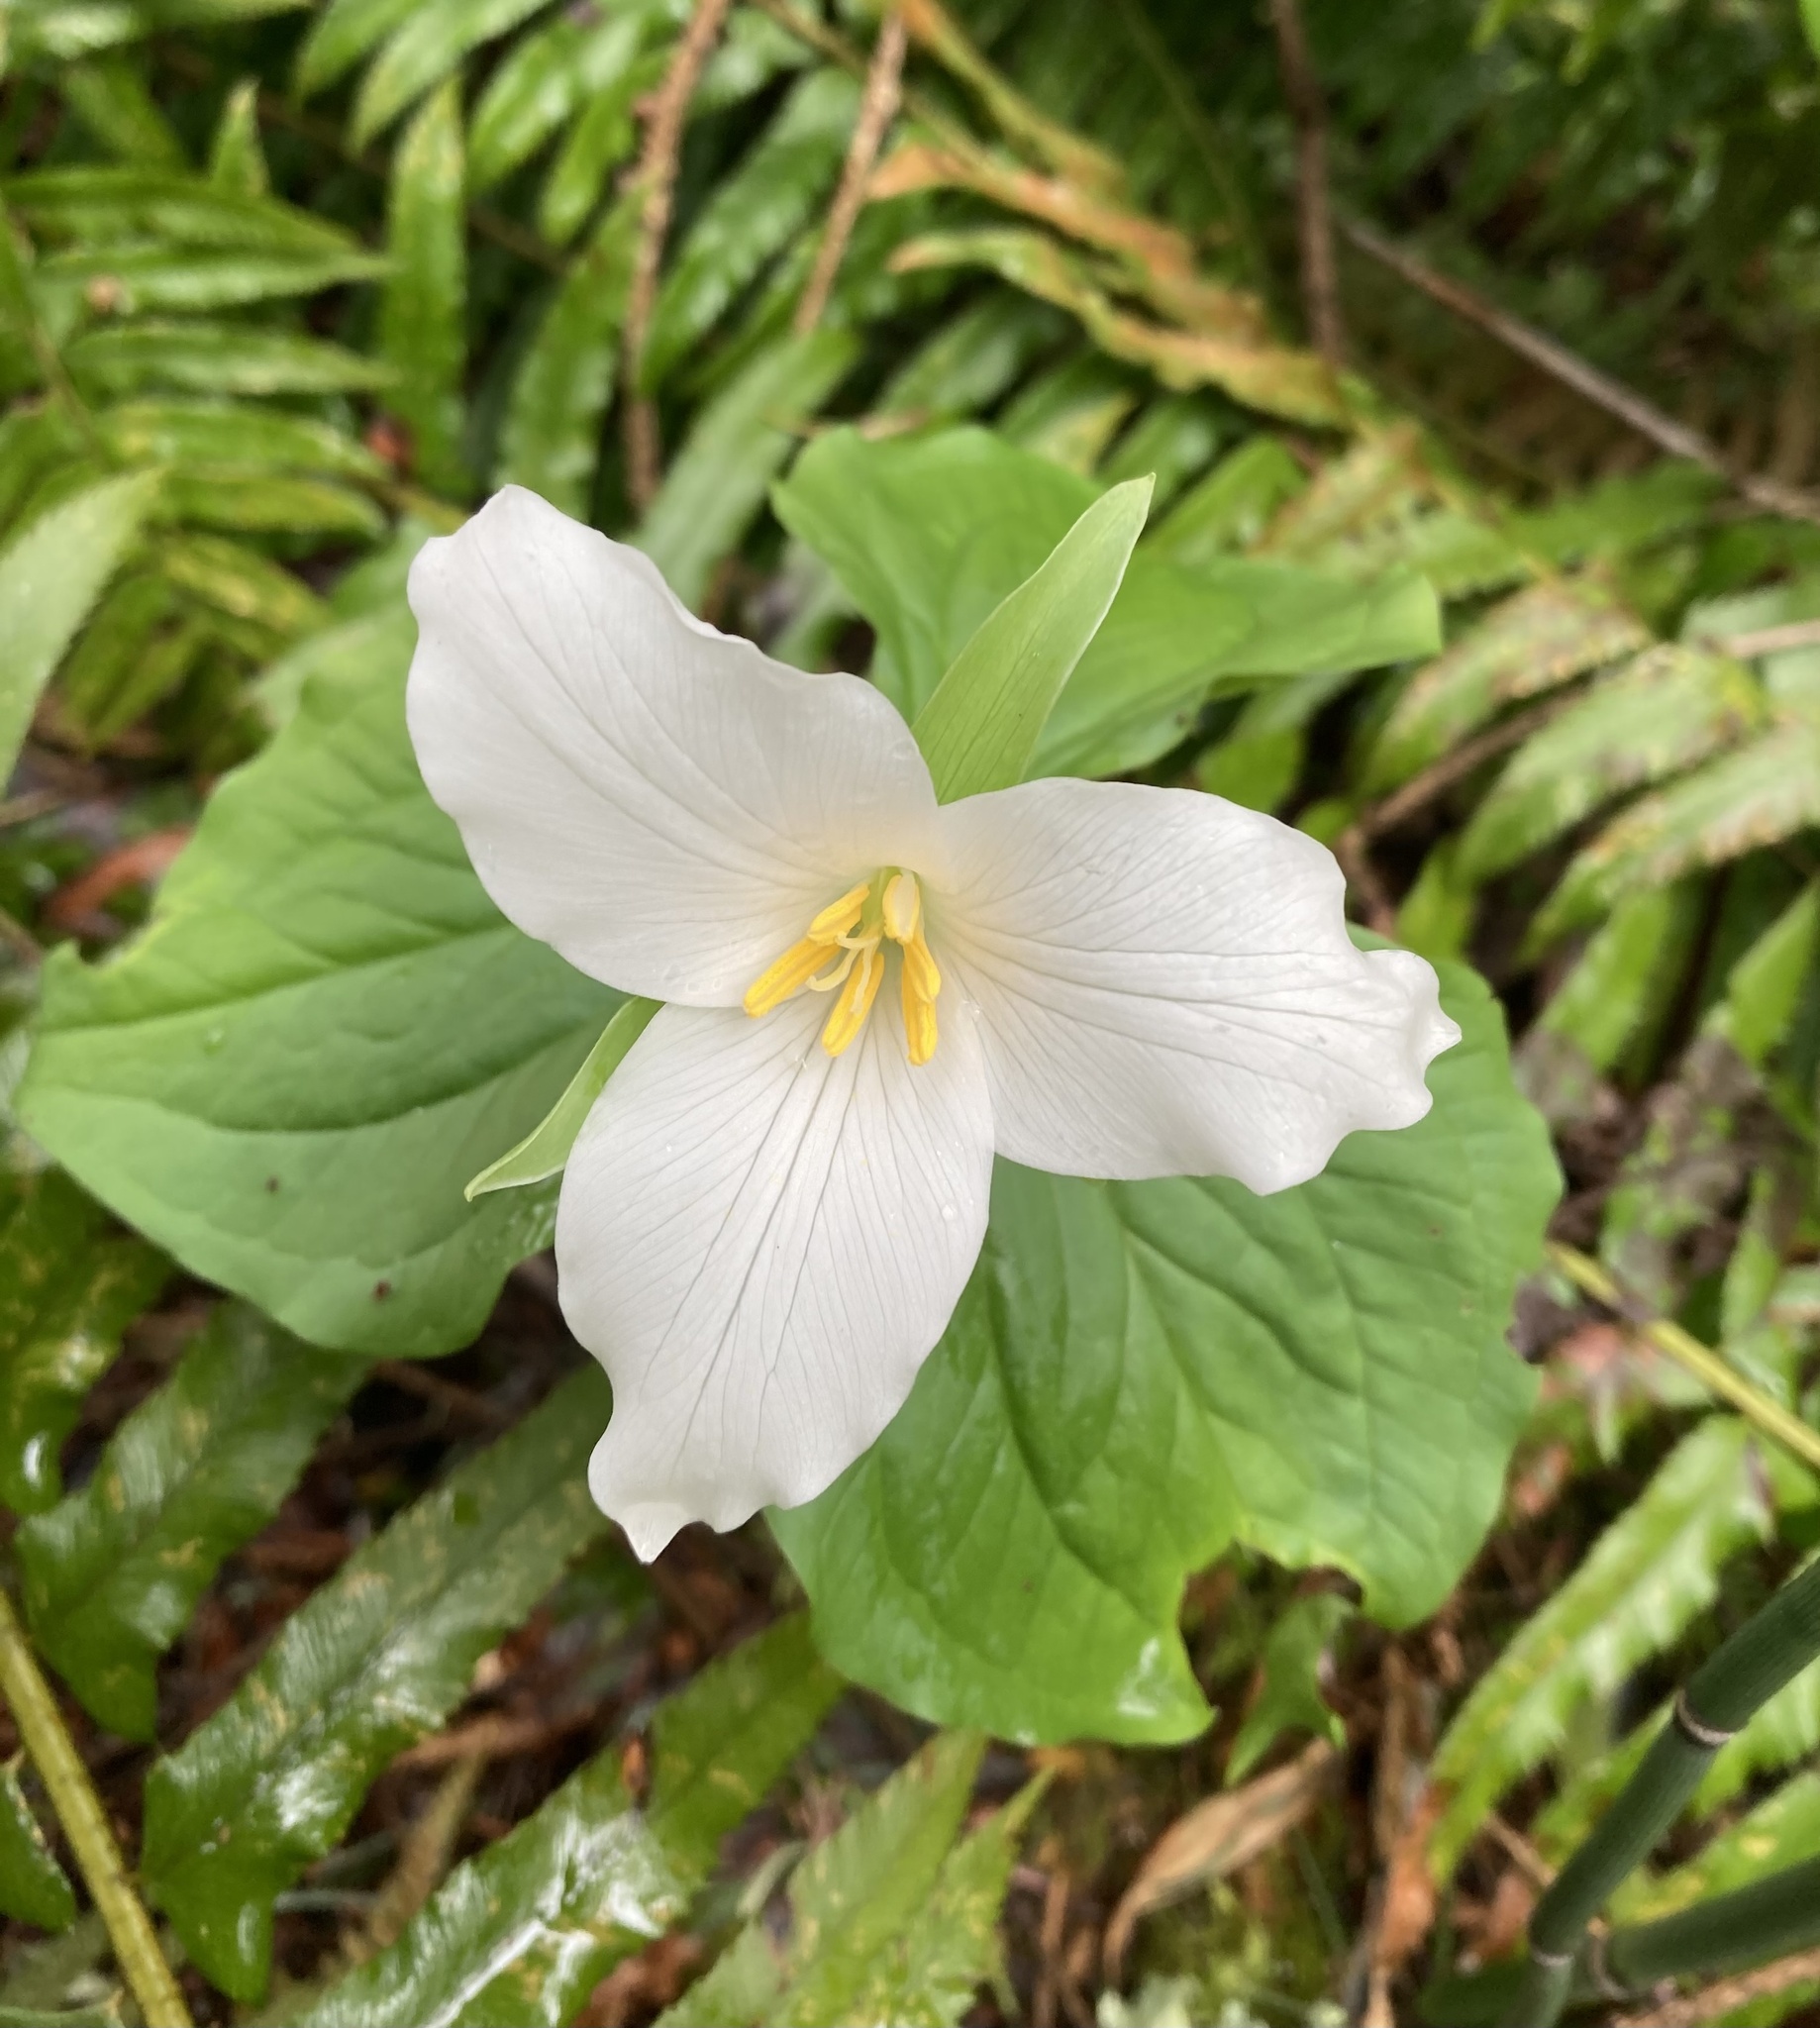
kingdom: Plantae
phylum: Tracheophyta
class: Liliopsida
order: Liliales
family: Melanthiaceae
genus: Trillium
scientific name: Trillium ovatum
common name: Pacific trillium
